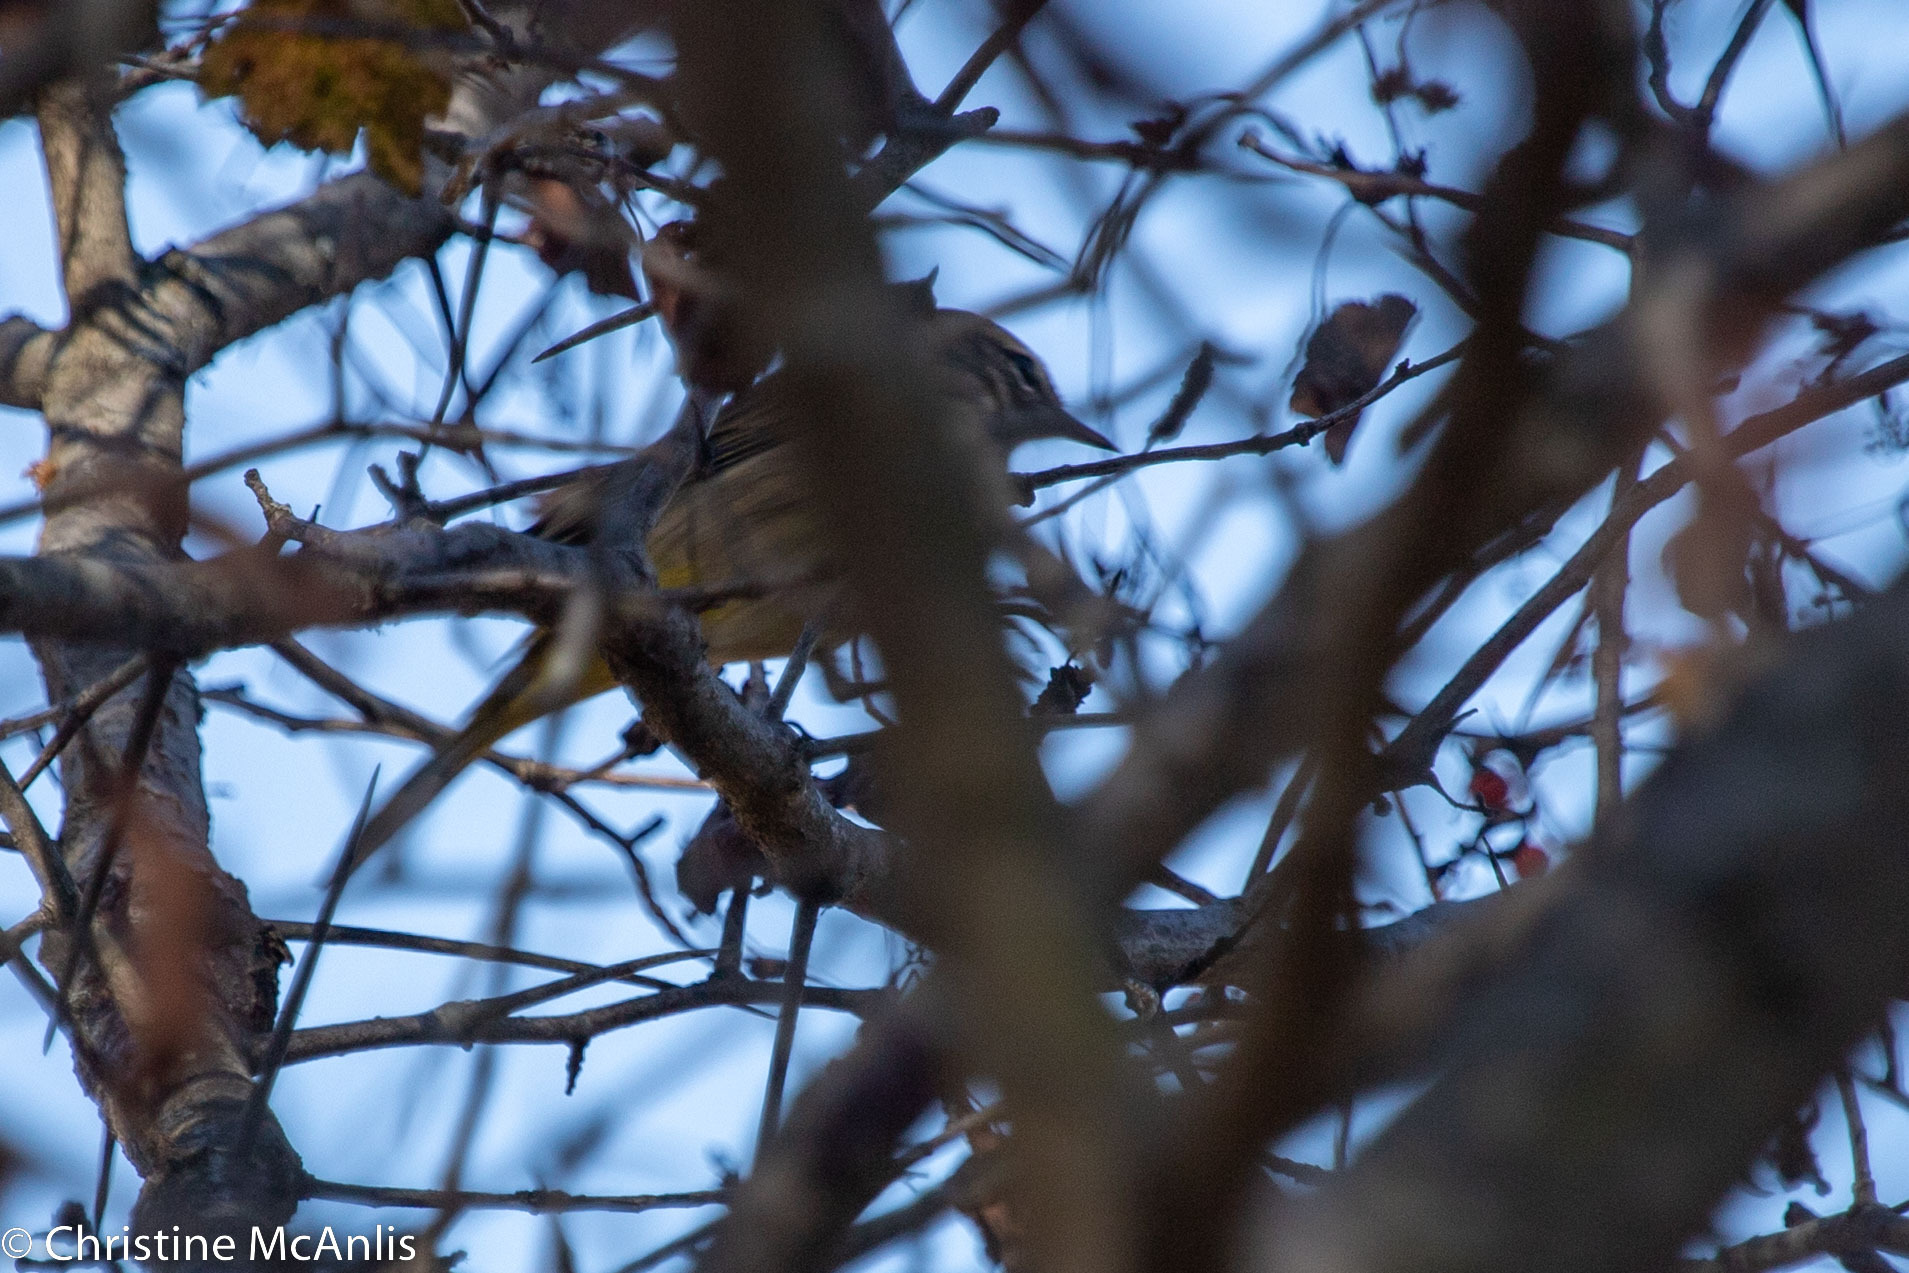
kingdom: Animalia
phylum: Chordata
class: Aves
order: Passeriformes
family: Parulidae
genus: Setophaga
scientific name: Setophaga palmarum
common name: Palm warbler
